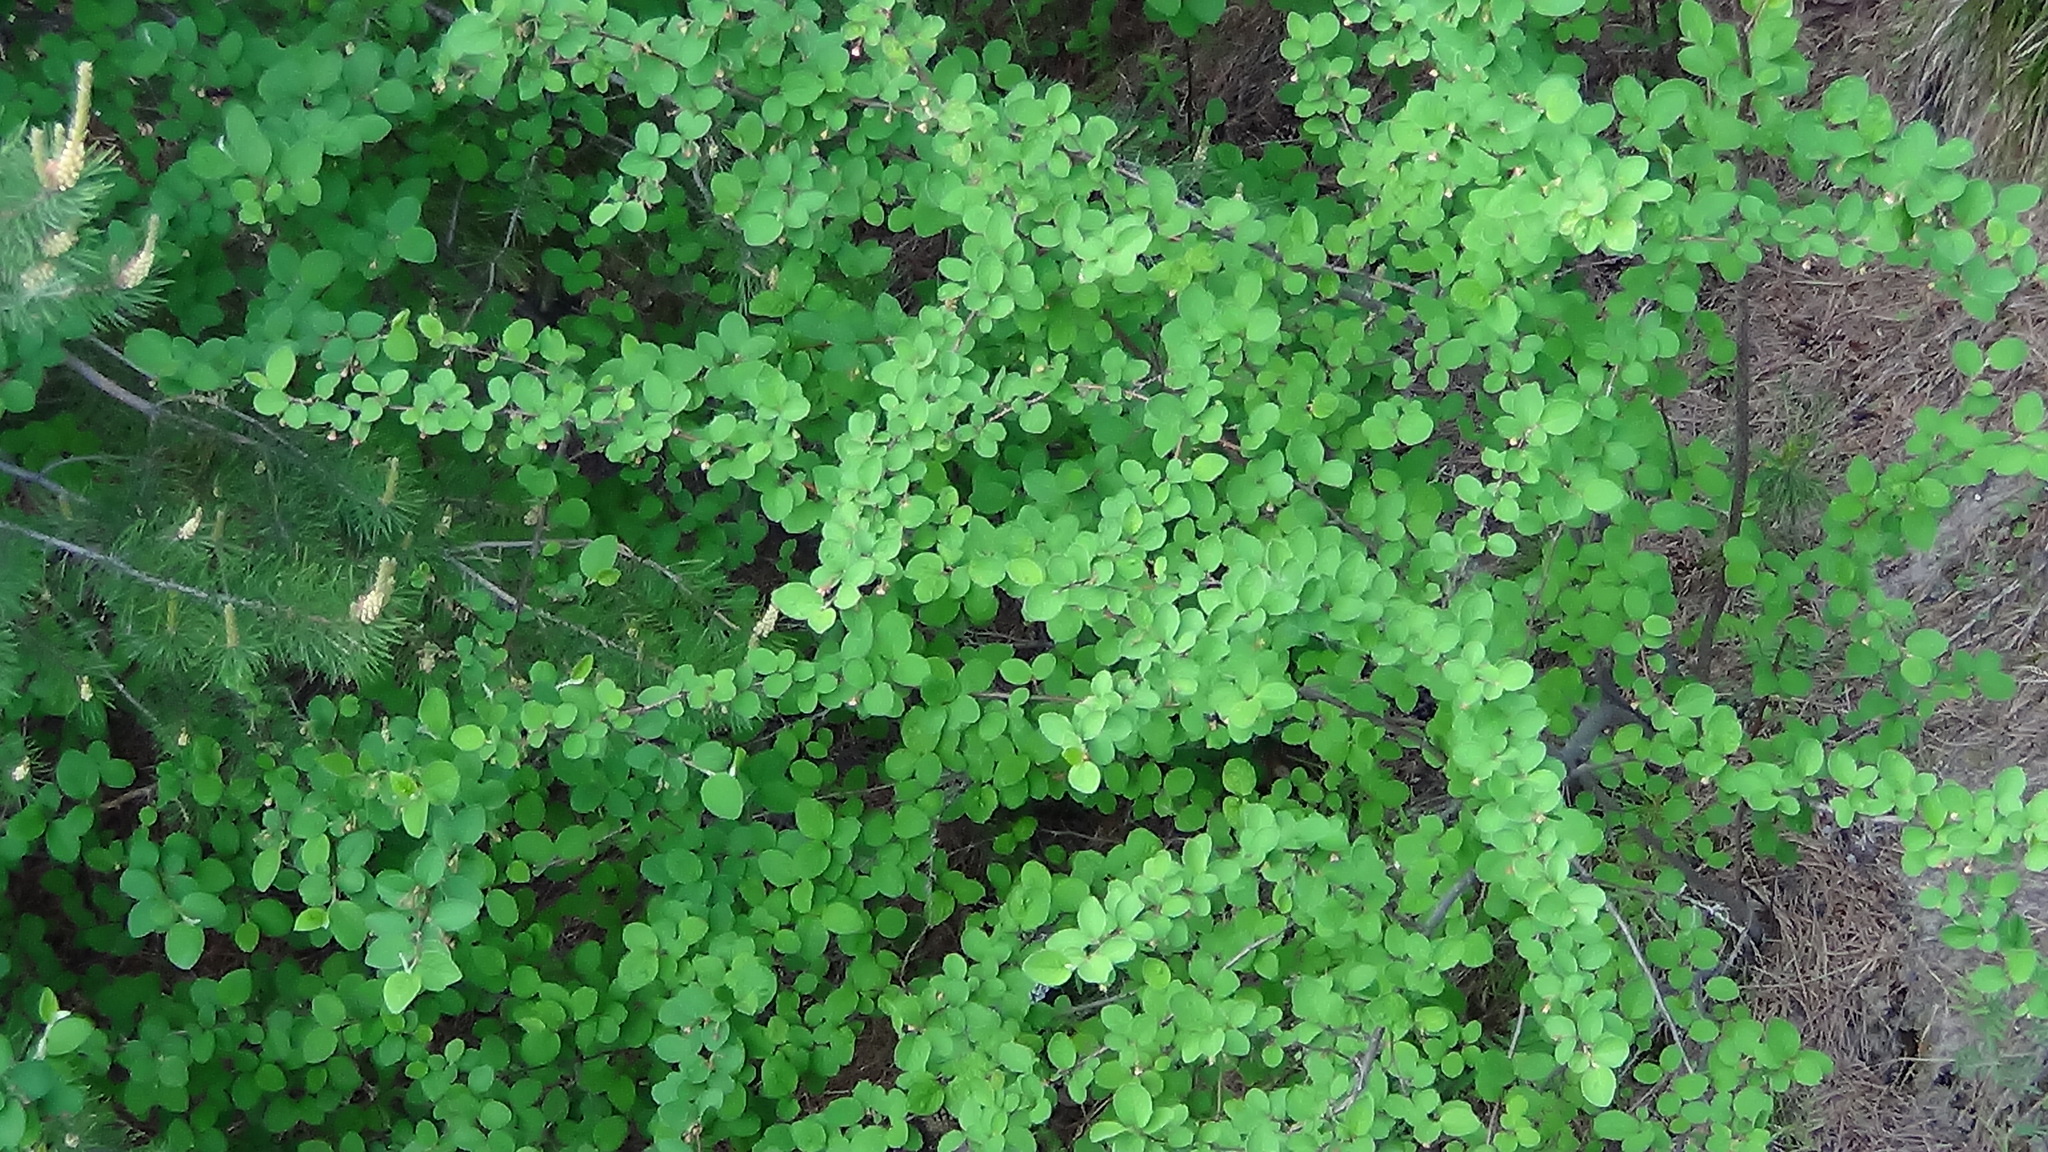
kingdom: Plantae
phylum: Tracheophyta
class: Magnoliopsida
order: Rosales
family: Rosaceae
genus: Cotoneaster
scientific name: Cotoneaster melanocarpus
